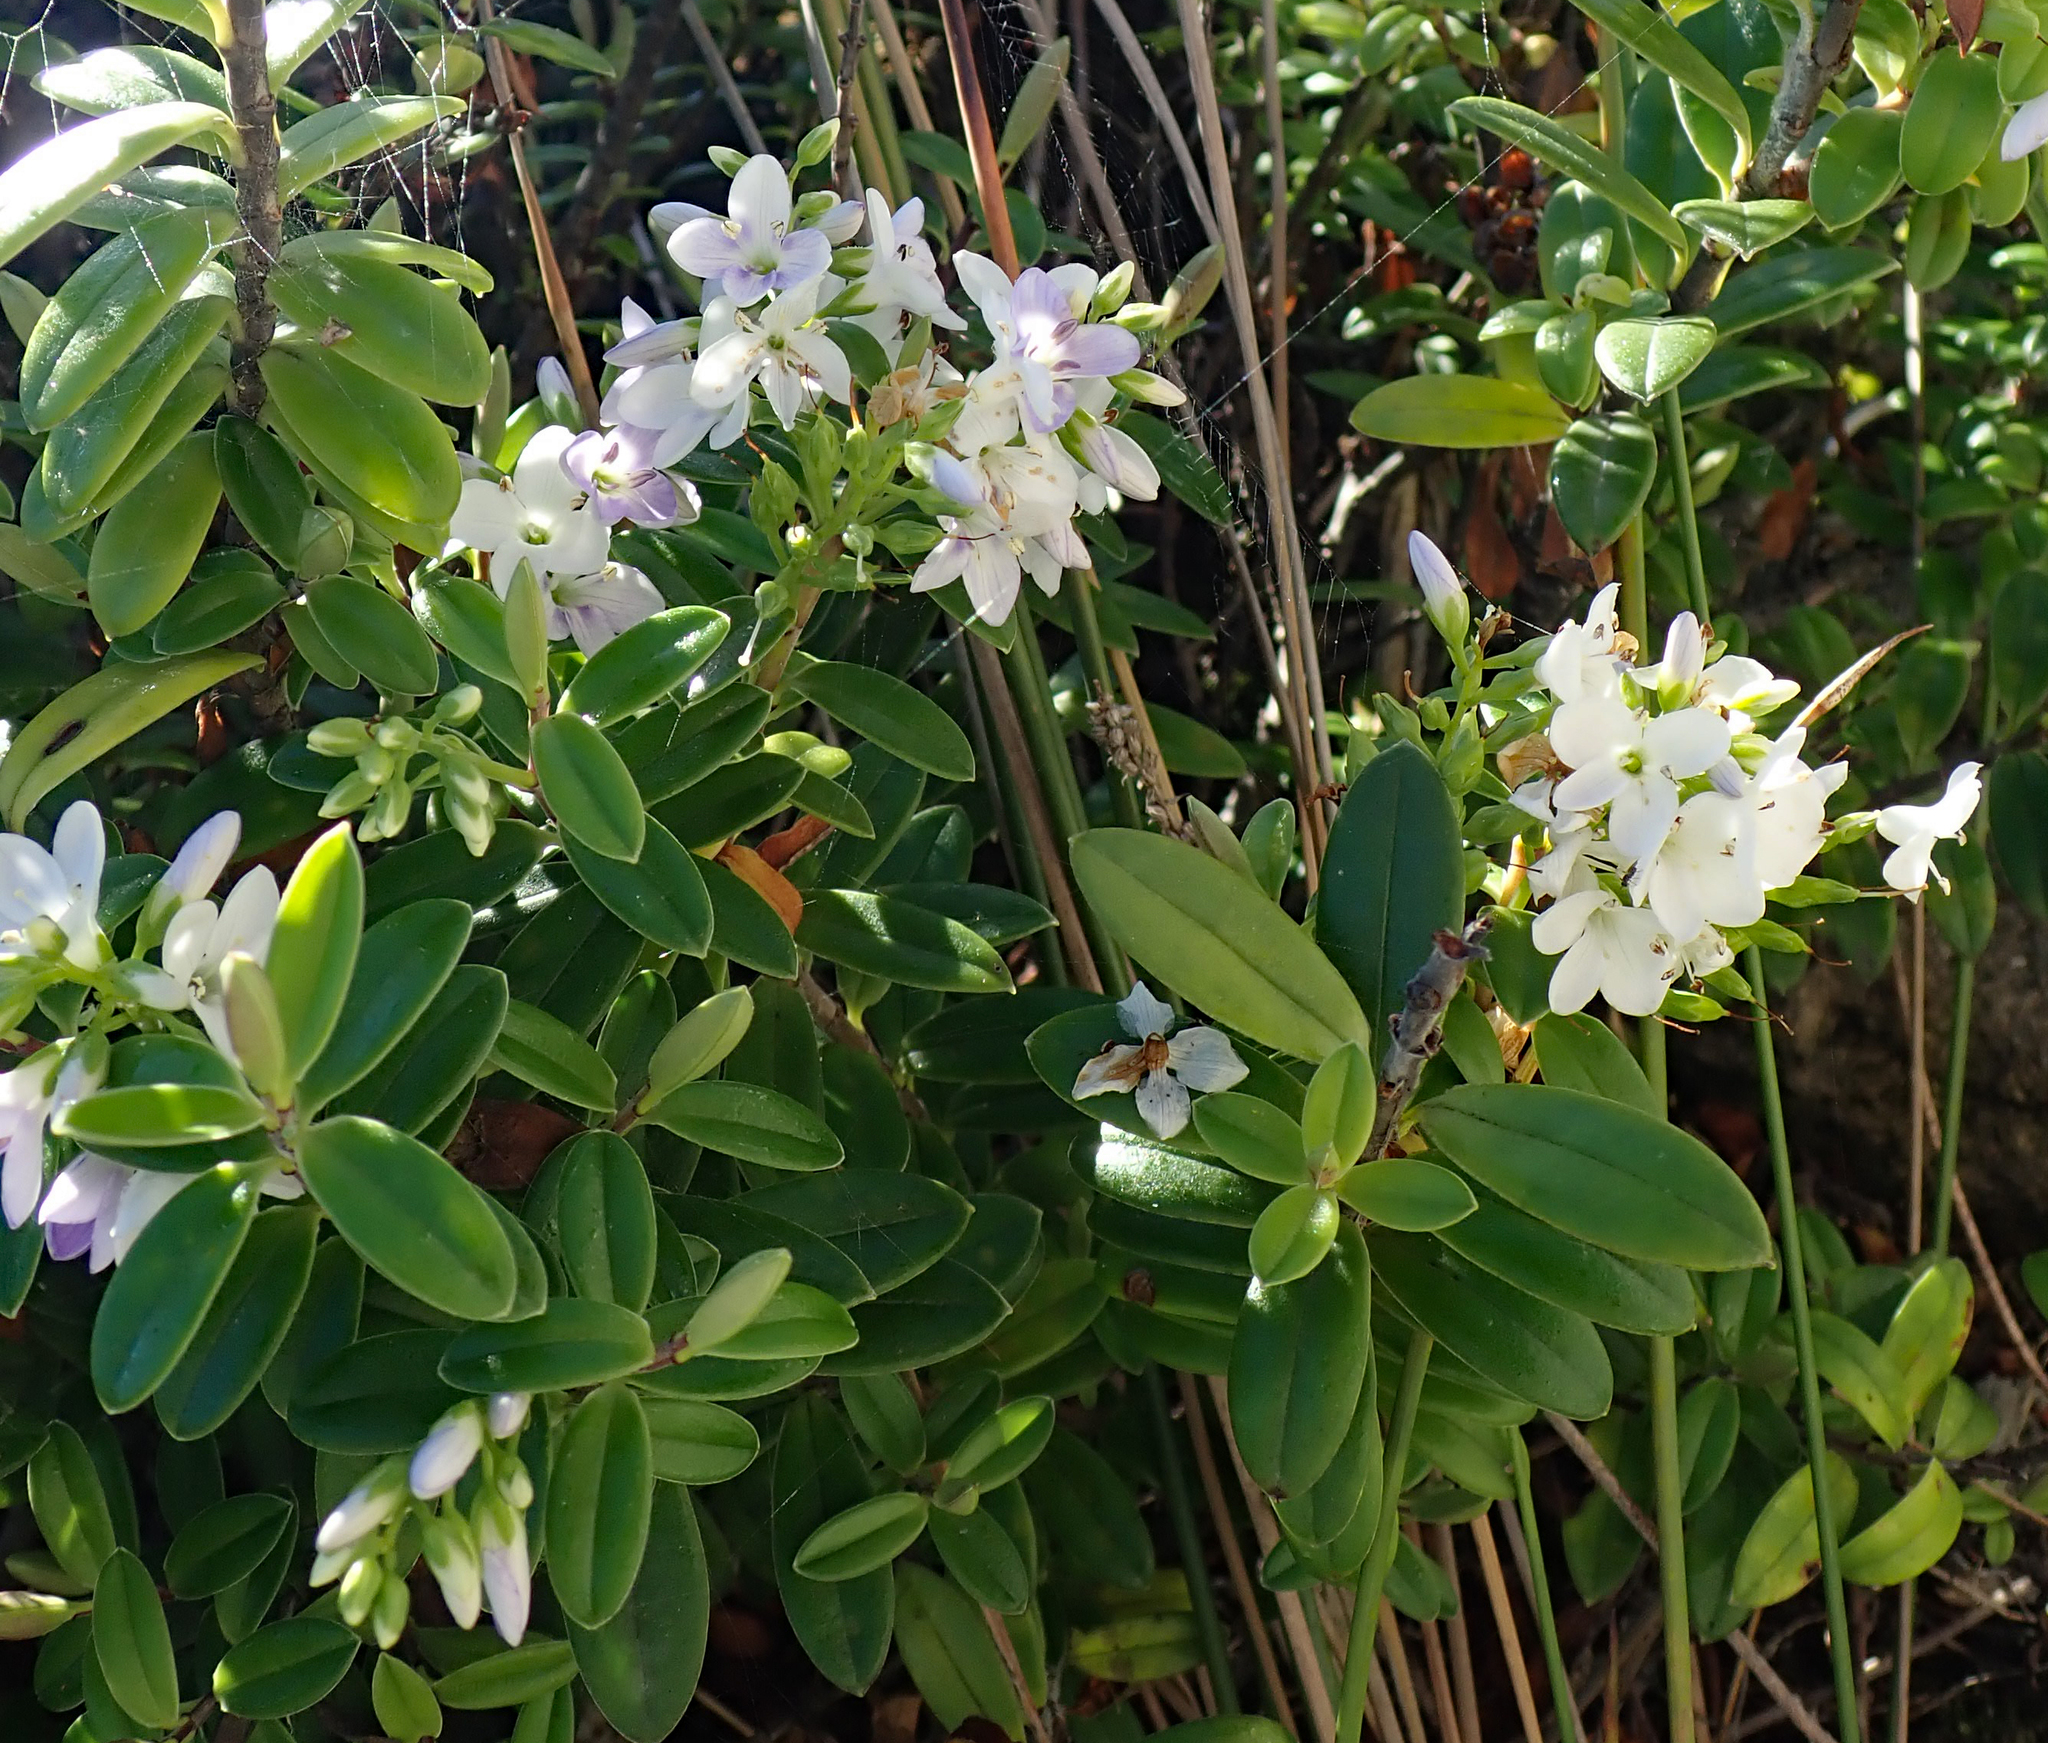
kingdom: Plantae
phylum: Tracheophyta
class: Magnoliopsida
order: Lamiales
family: Plantaginaceae
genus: Veronica
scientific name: Veronica elliptica
